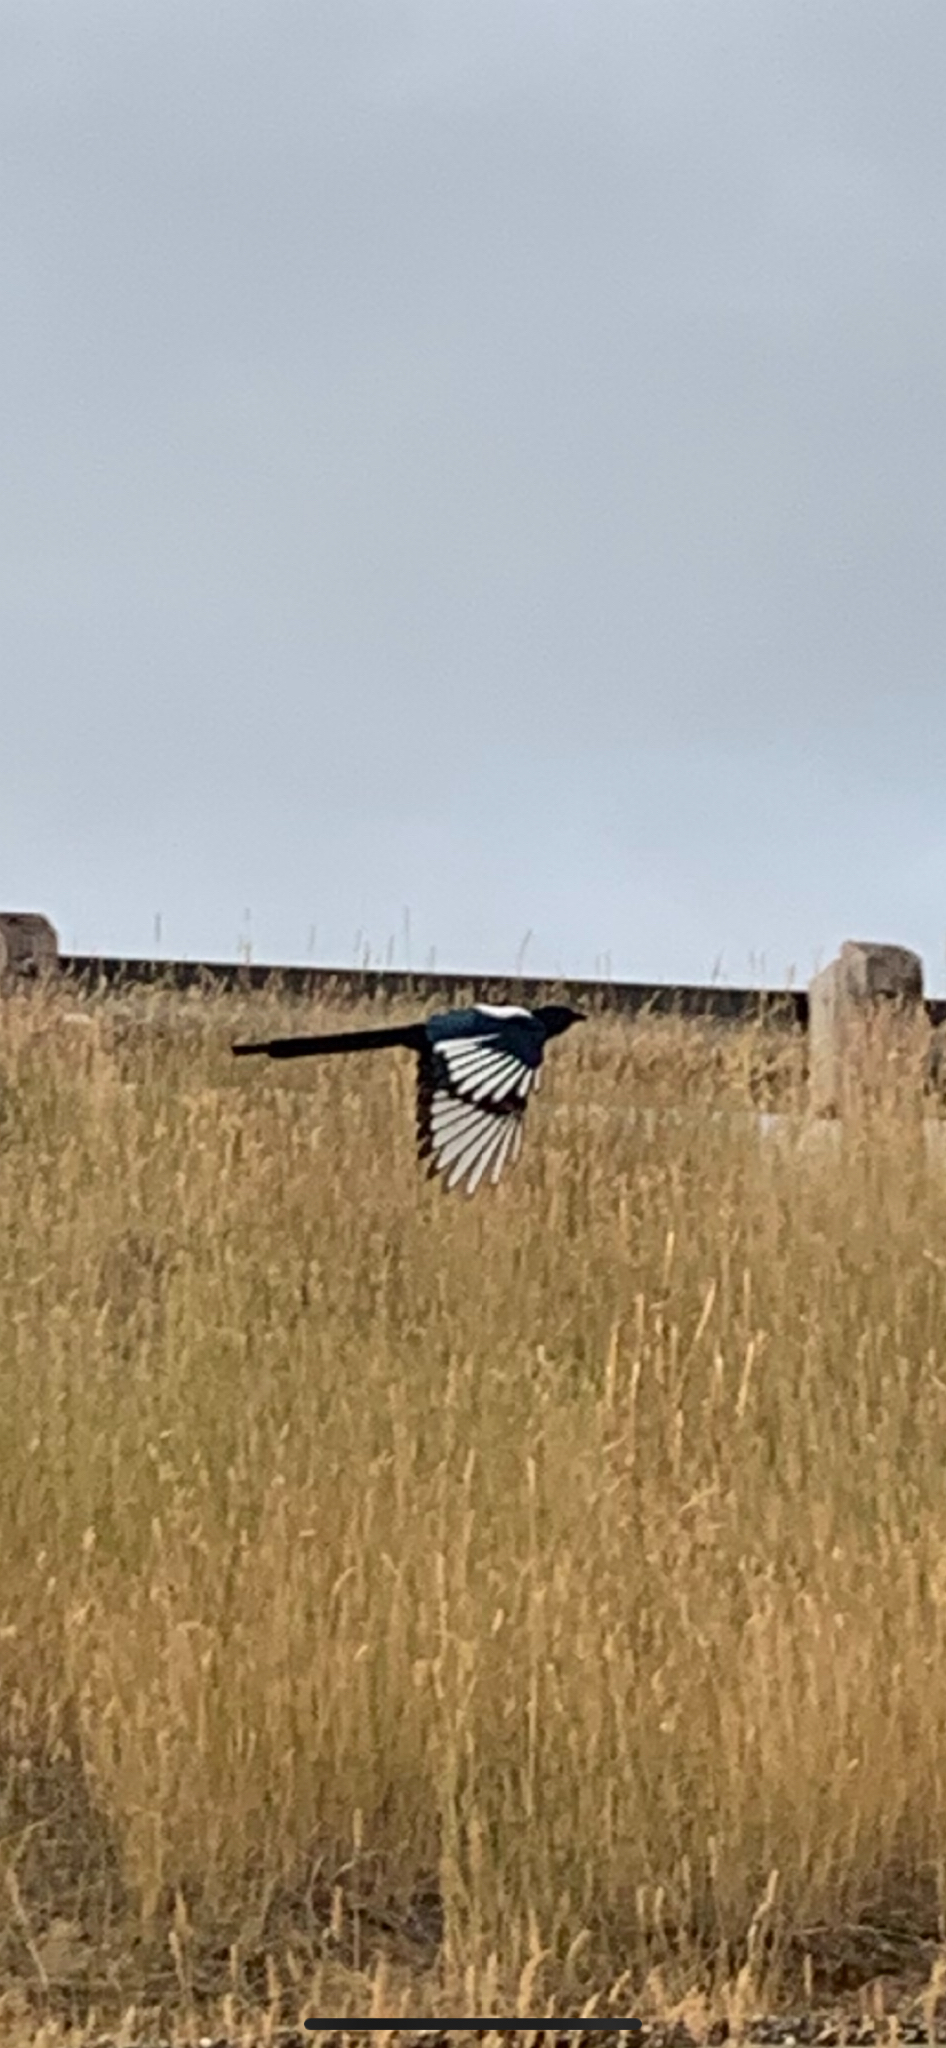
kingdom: Animalia
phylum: Chordata
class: Aves
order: Passeriformes
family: Corvidae
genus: Pica
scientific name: Pica hudsonia
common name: Black-billed magpie
